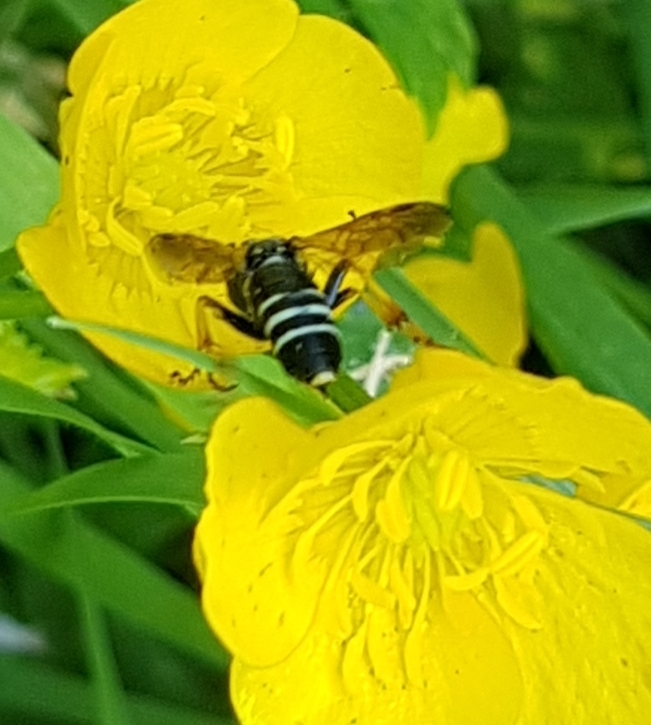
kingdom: Animalia
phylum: Arthropoda
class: Insecta
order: Hymenoptera
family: Tenthredinidae
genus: Tenthredo
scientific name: Tenthredo koehleri
